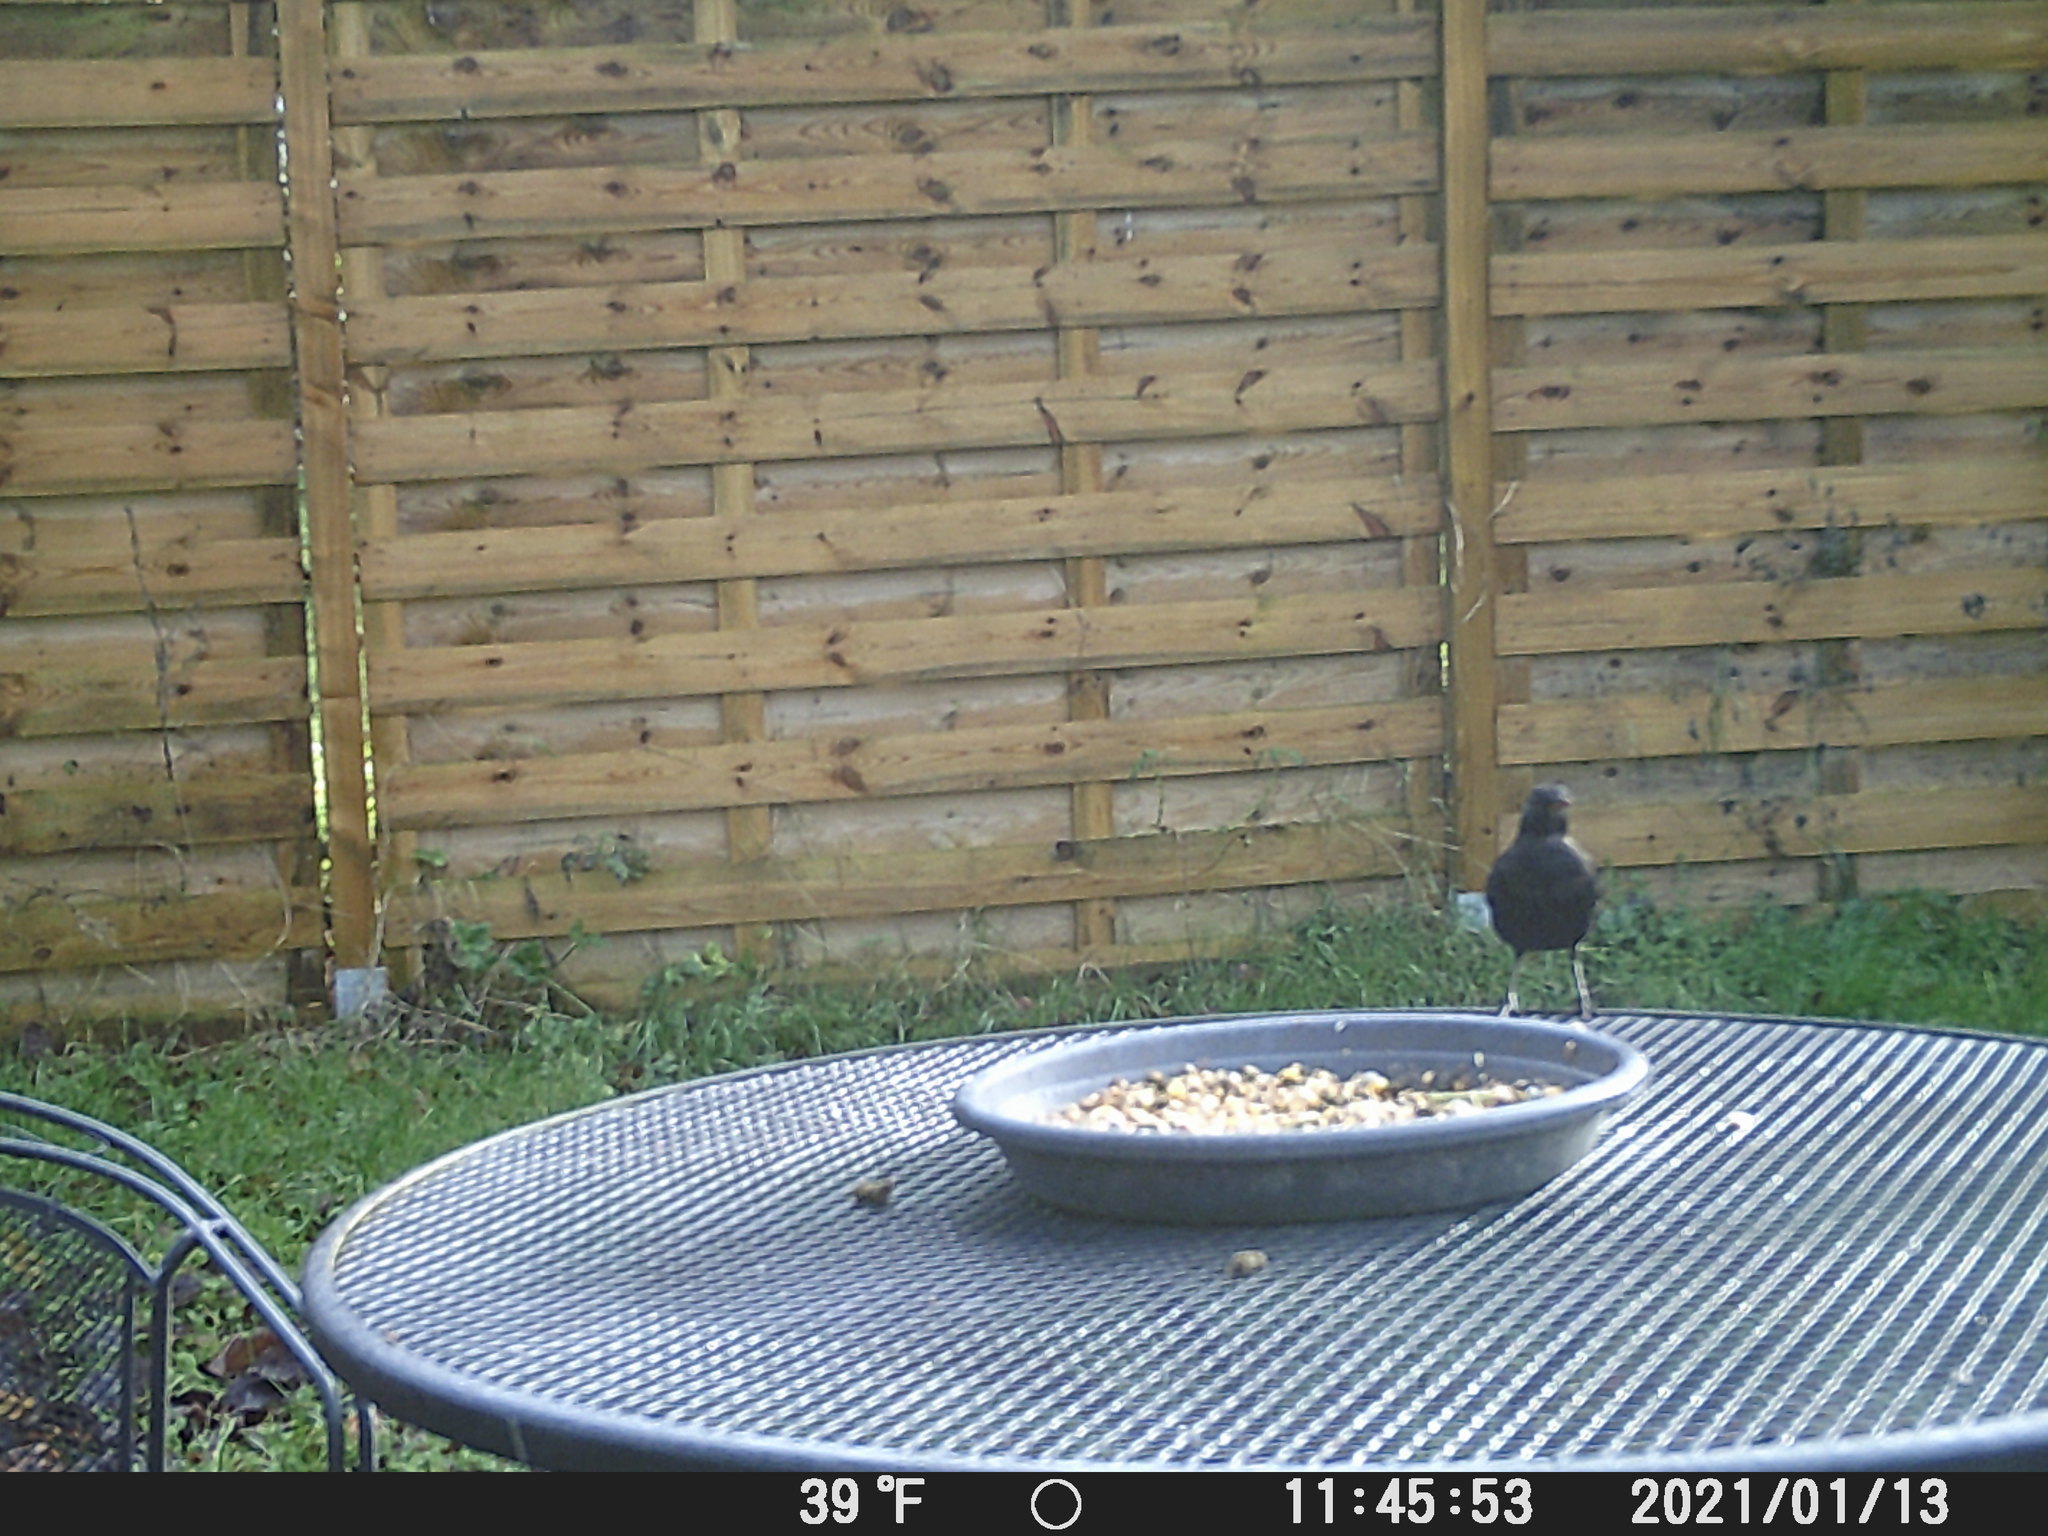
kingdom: Animalia
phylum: Chordata
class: Aves
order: Passeriformes
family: Turdidae
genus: Turdus
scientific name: Turdus merula
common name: Common blackbird
